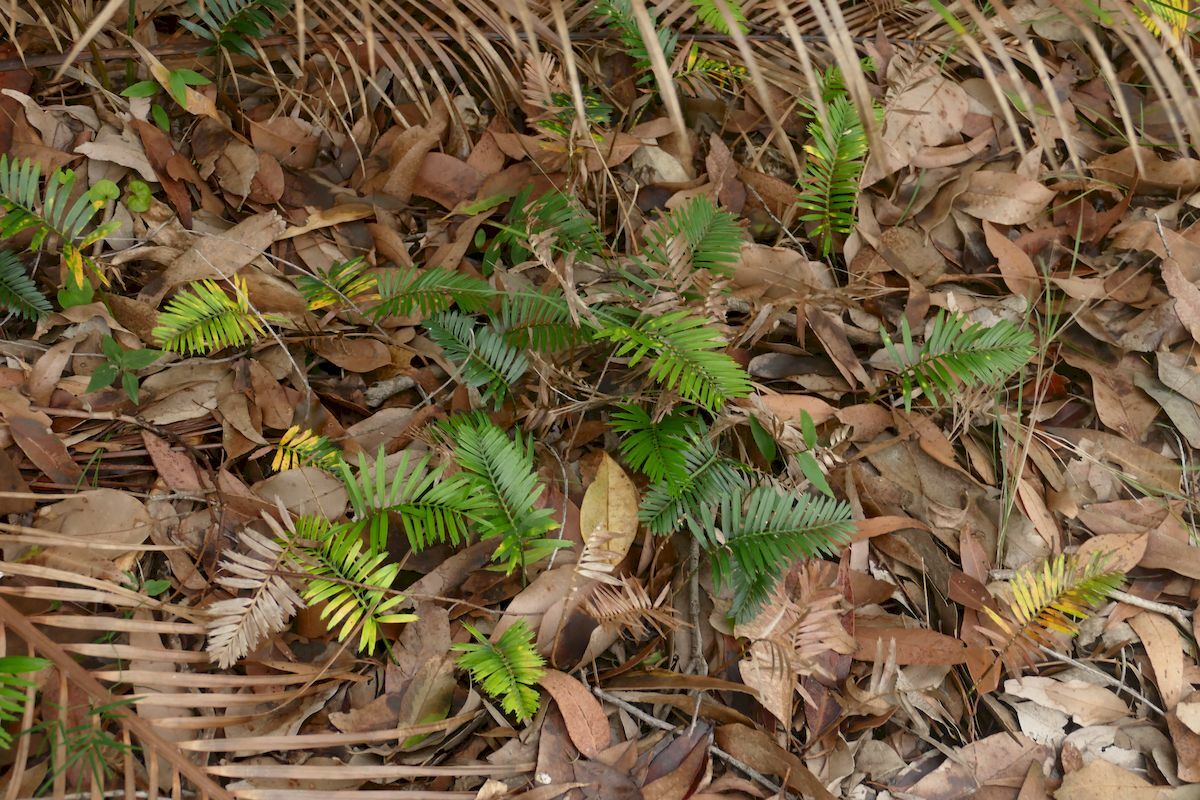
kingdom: Plantae
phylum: Tracheophyta
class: Cycadopsida
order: Cycadales
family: Zamiaceae
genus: Macrozamia
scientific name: Macrozamia communis
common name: Burrawong
